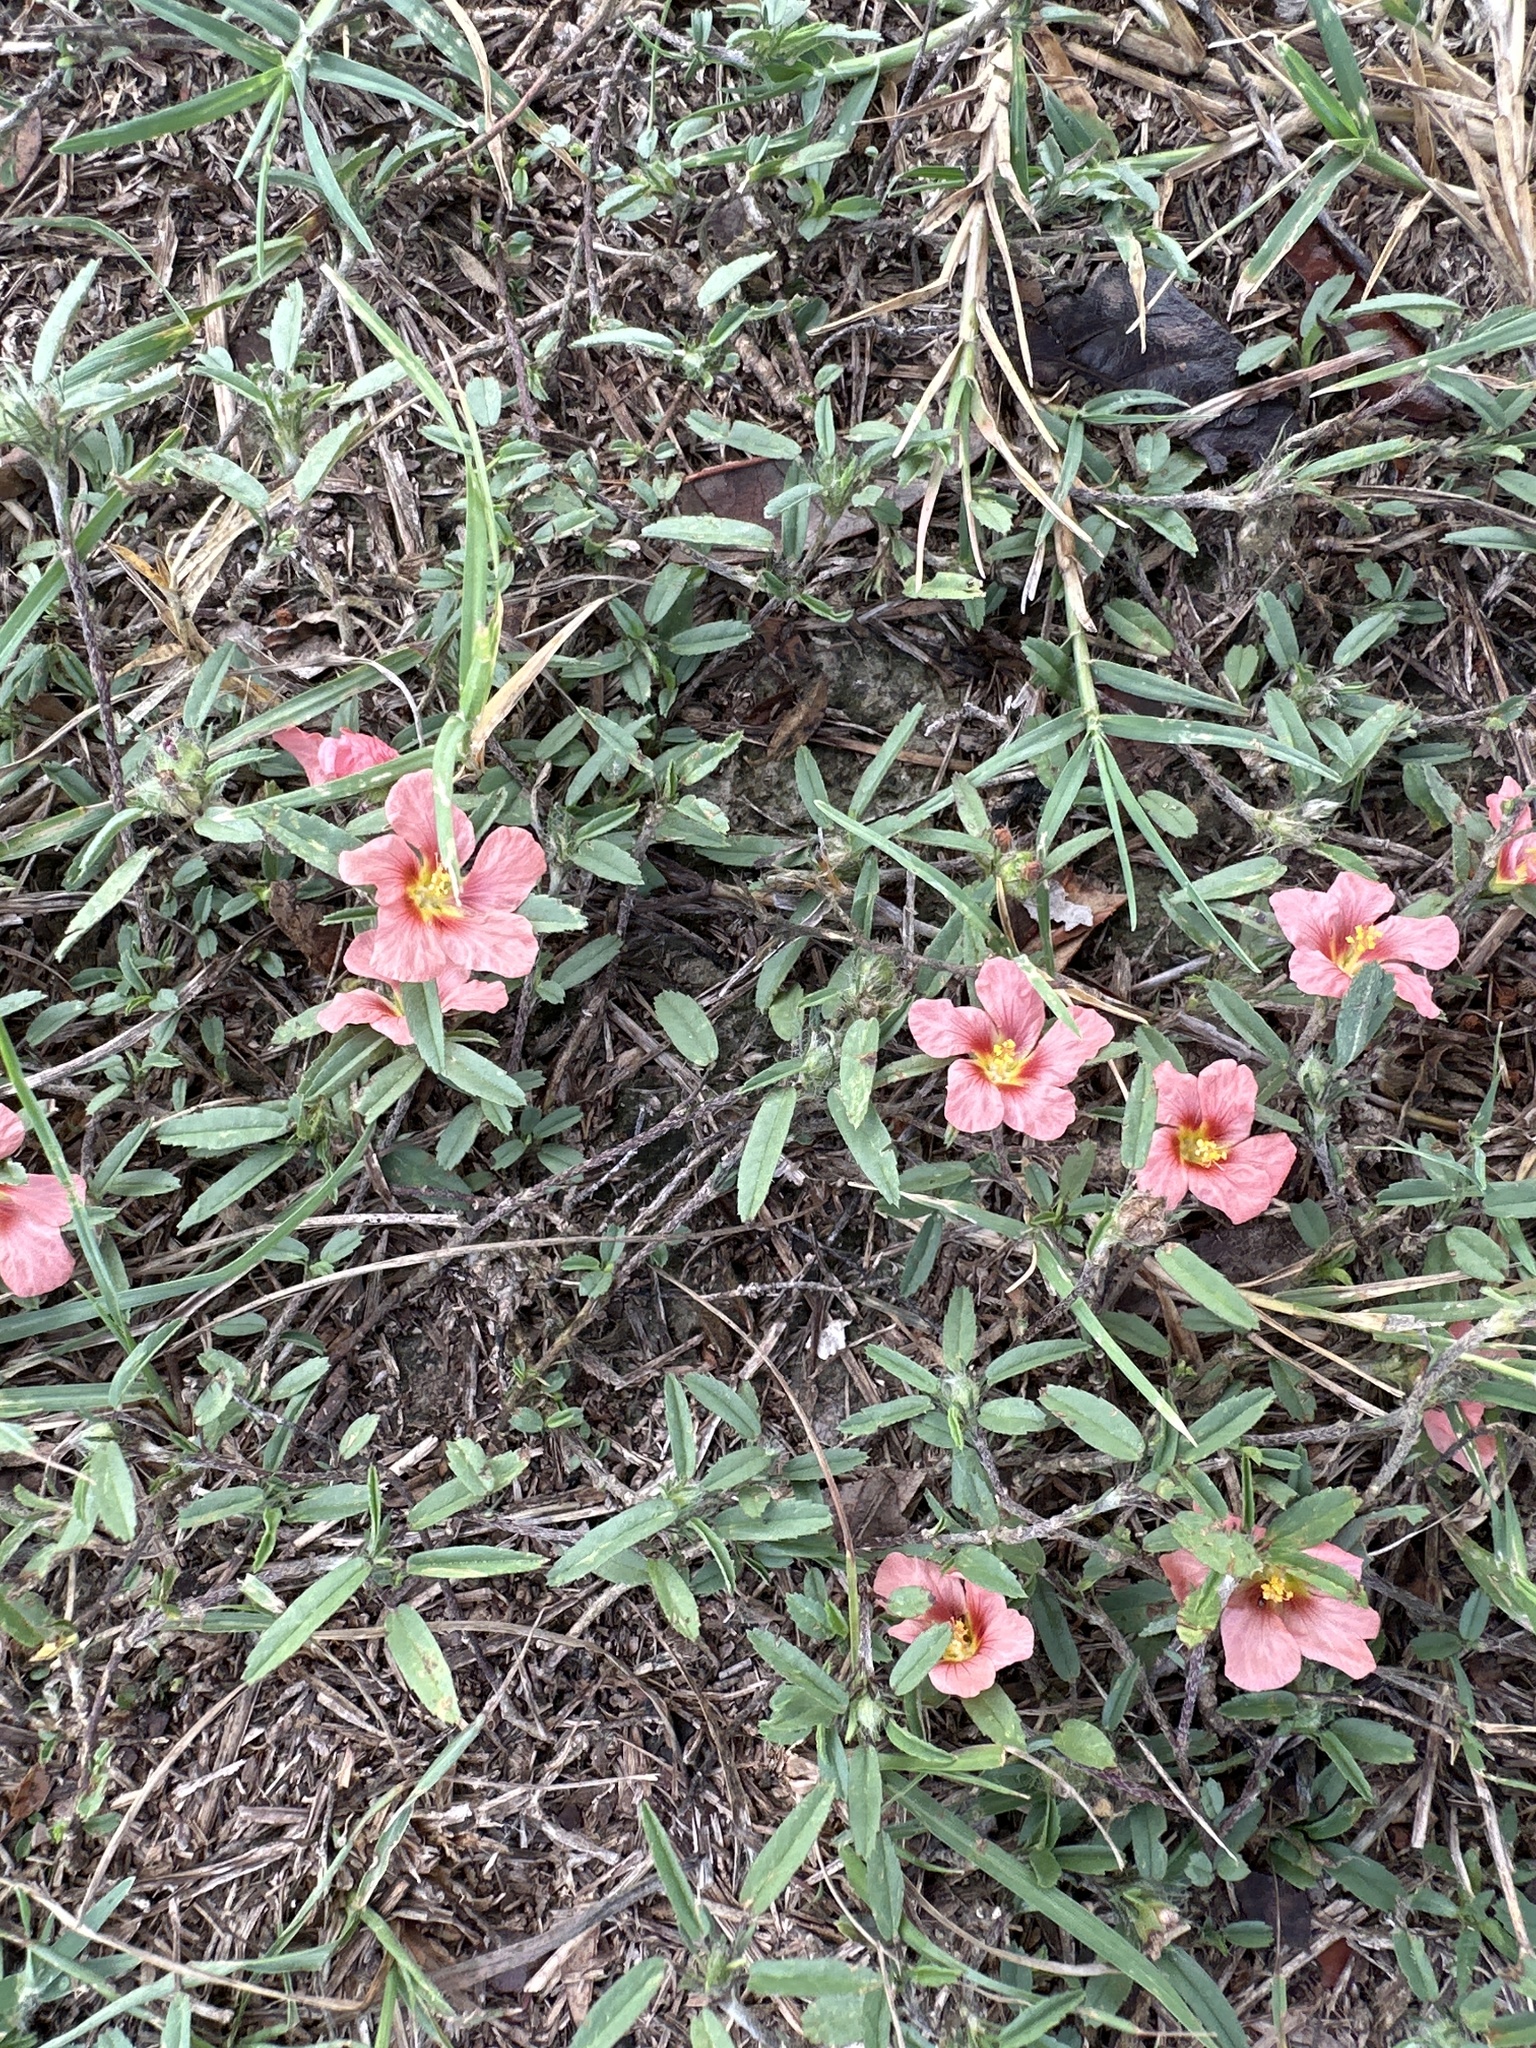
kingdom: Plantae
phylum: Tracheophyta
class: Magnoliopsida
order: Malvales
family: Malvaceae
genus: Sida
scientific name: Sida ciliaris
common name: Bracted fanpetals
